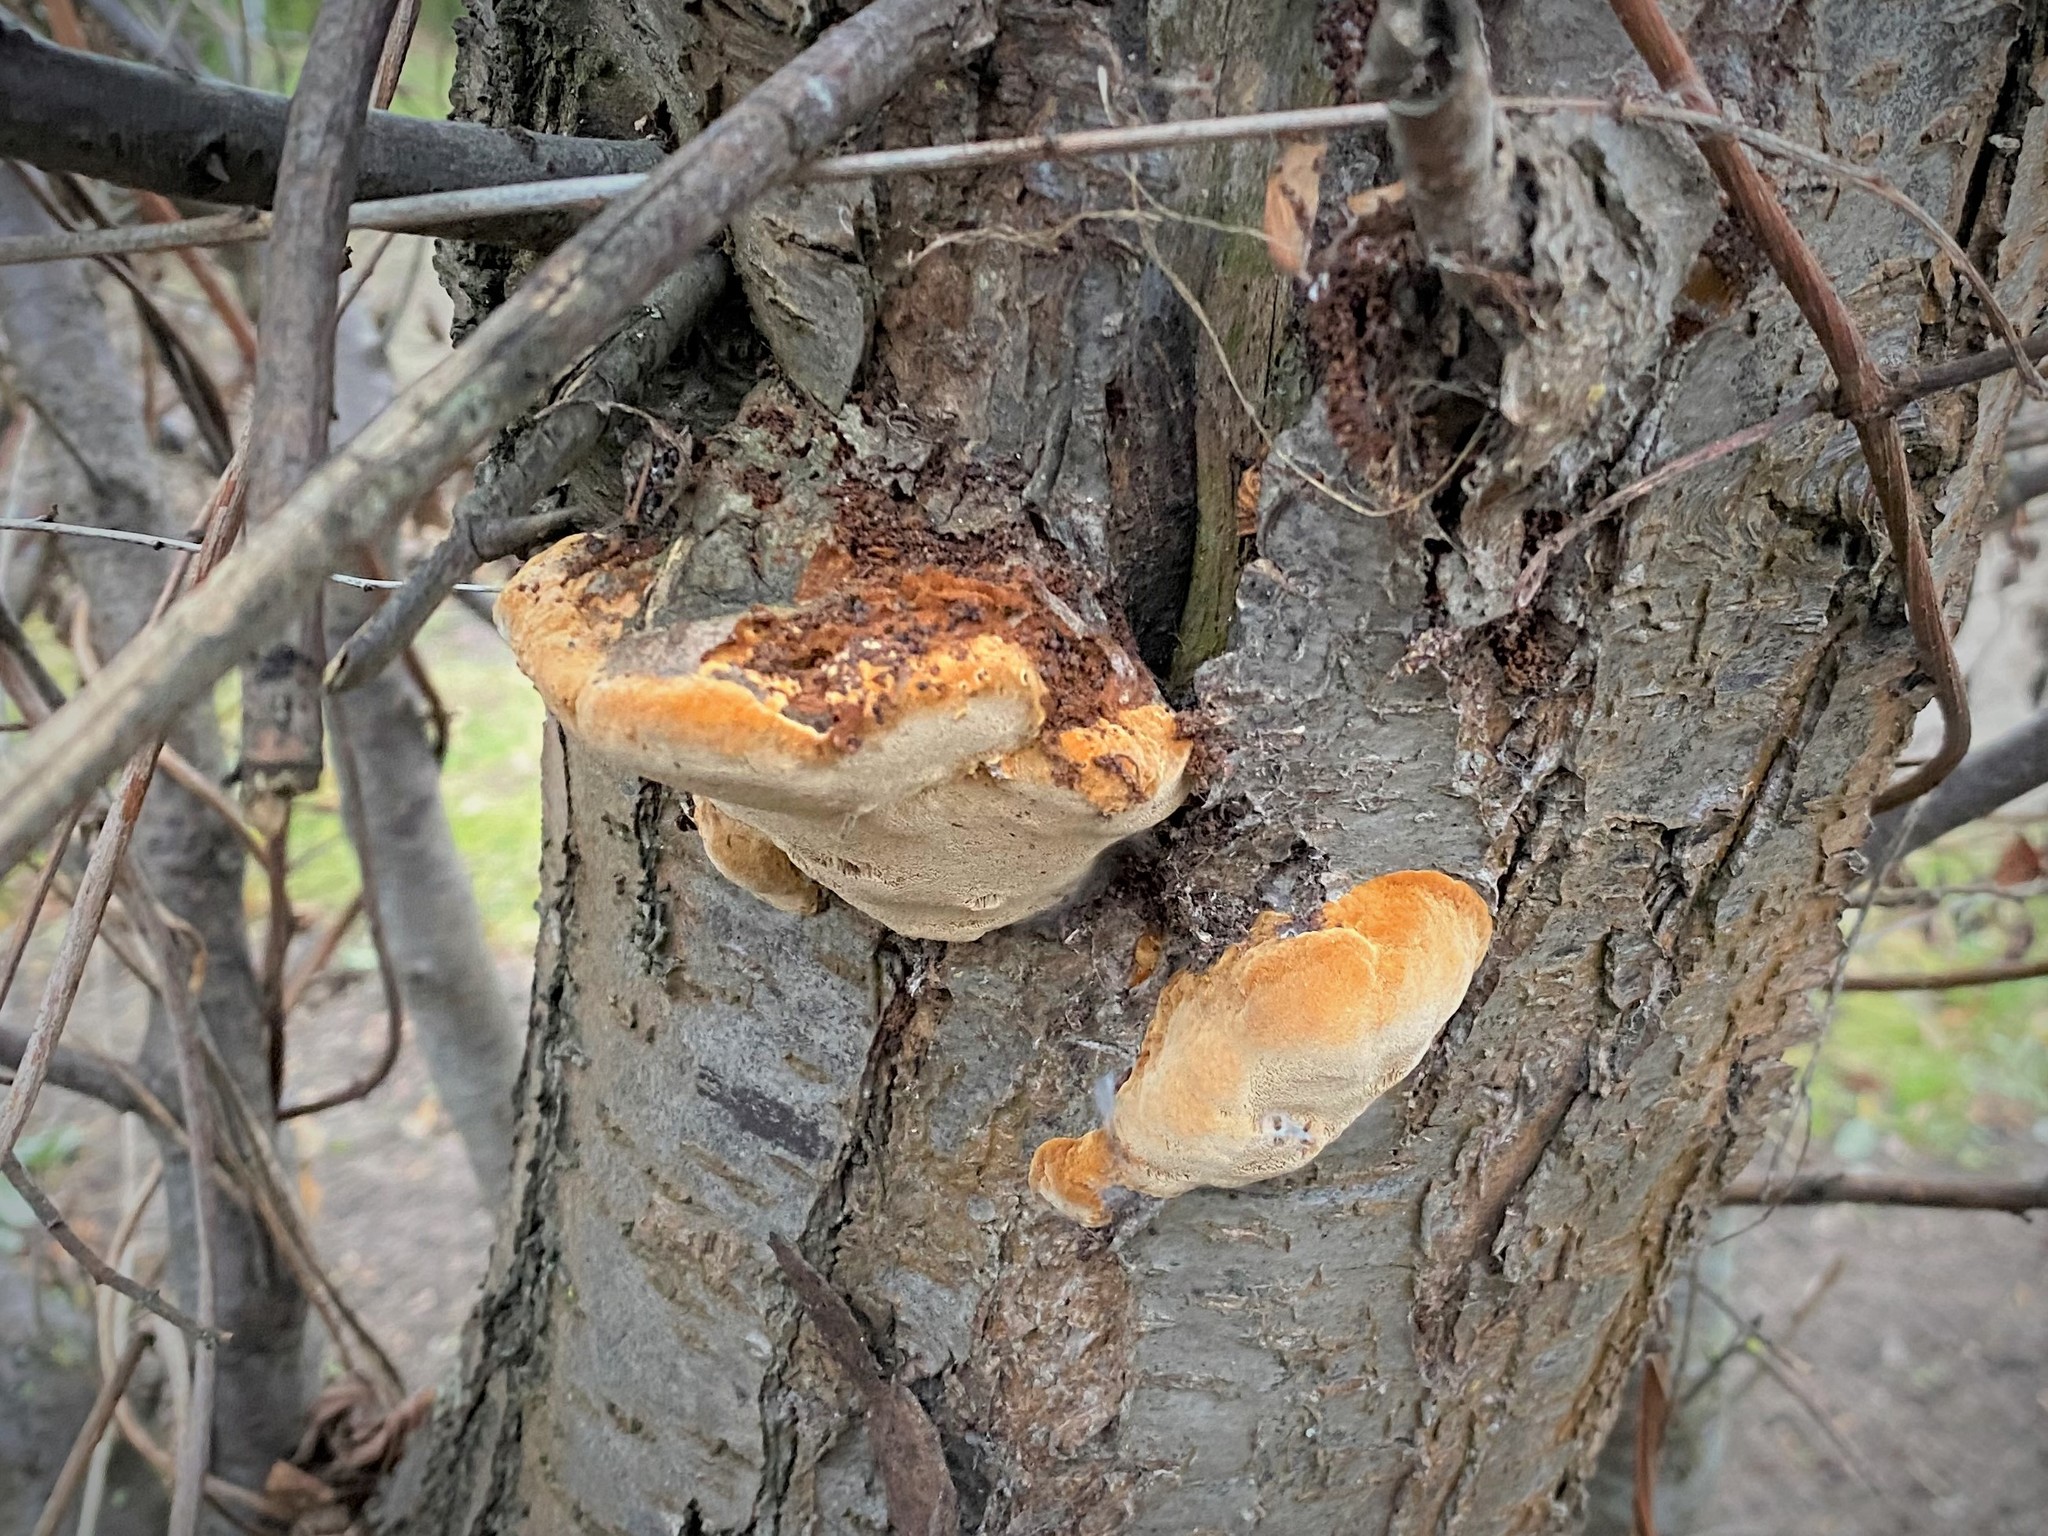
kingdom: Fungi
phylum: Basidiomycota
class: Agaricomycetes
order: Hymenochaetales
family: Hymenochaetaceae
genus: Phellinus
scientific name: Phellinus pomaceus
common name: Cushion bracket
